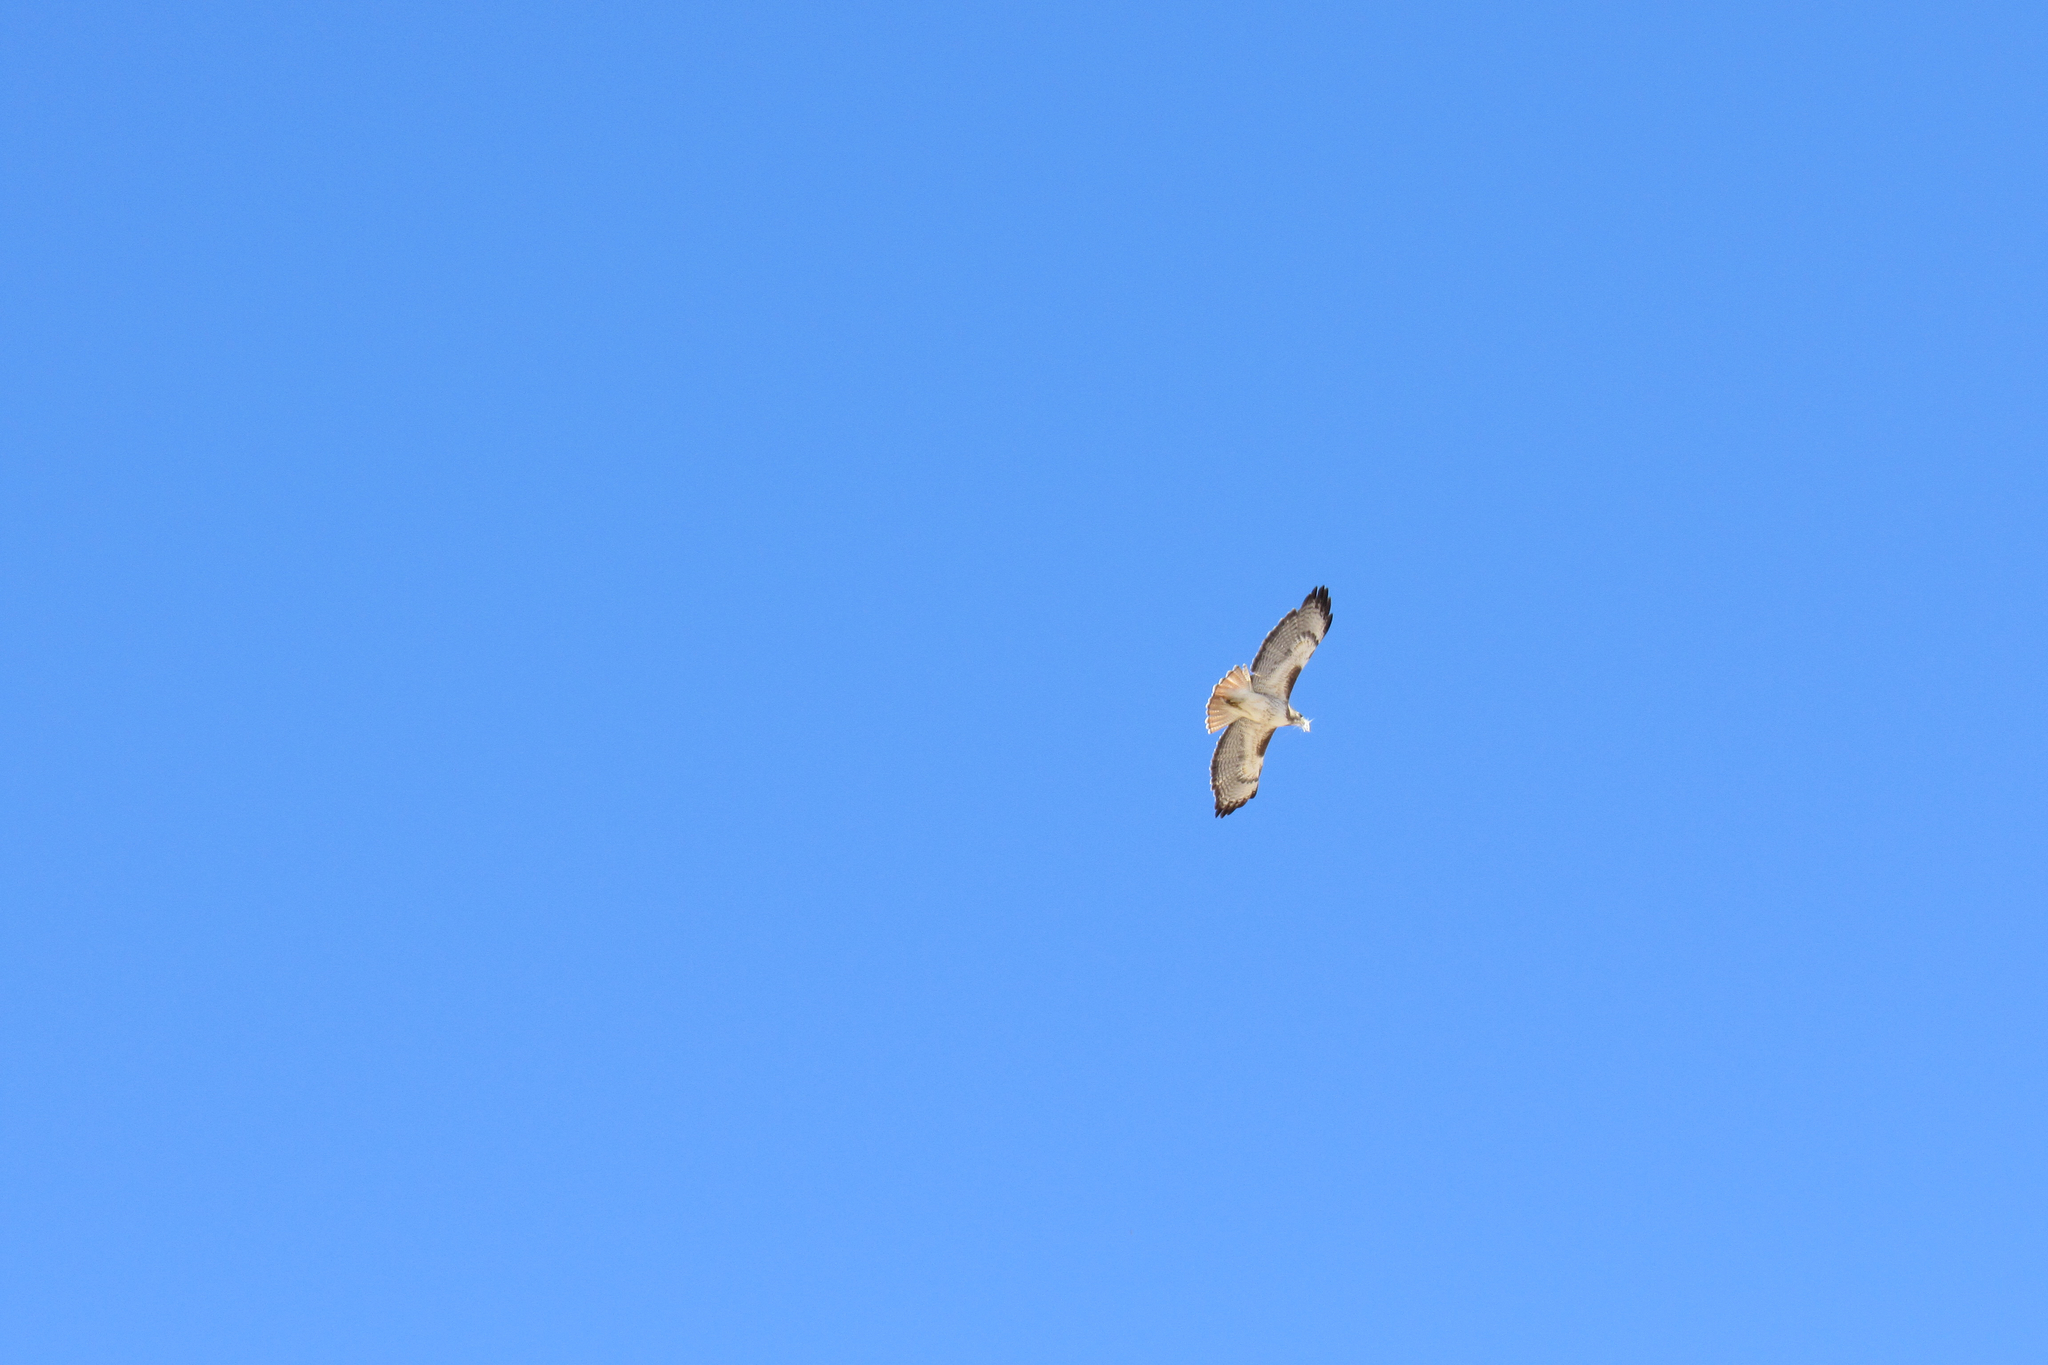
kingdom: Animalia
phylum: Chordata
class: Aves
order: Accipitriformes
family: Accipitridae
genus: Buteo
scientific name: Buteo jamaicensis
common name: Red-tailed hawk
